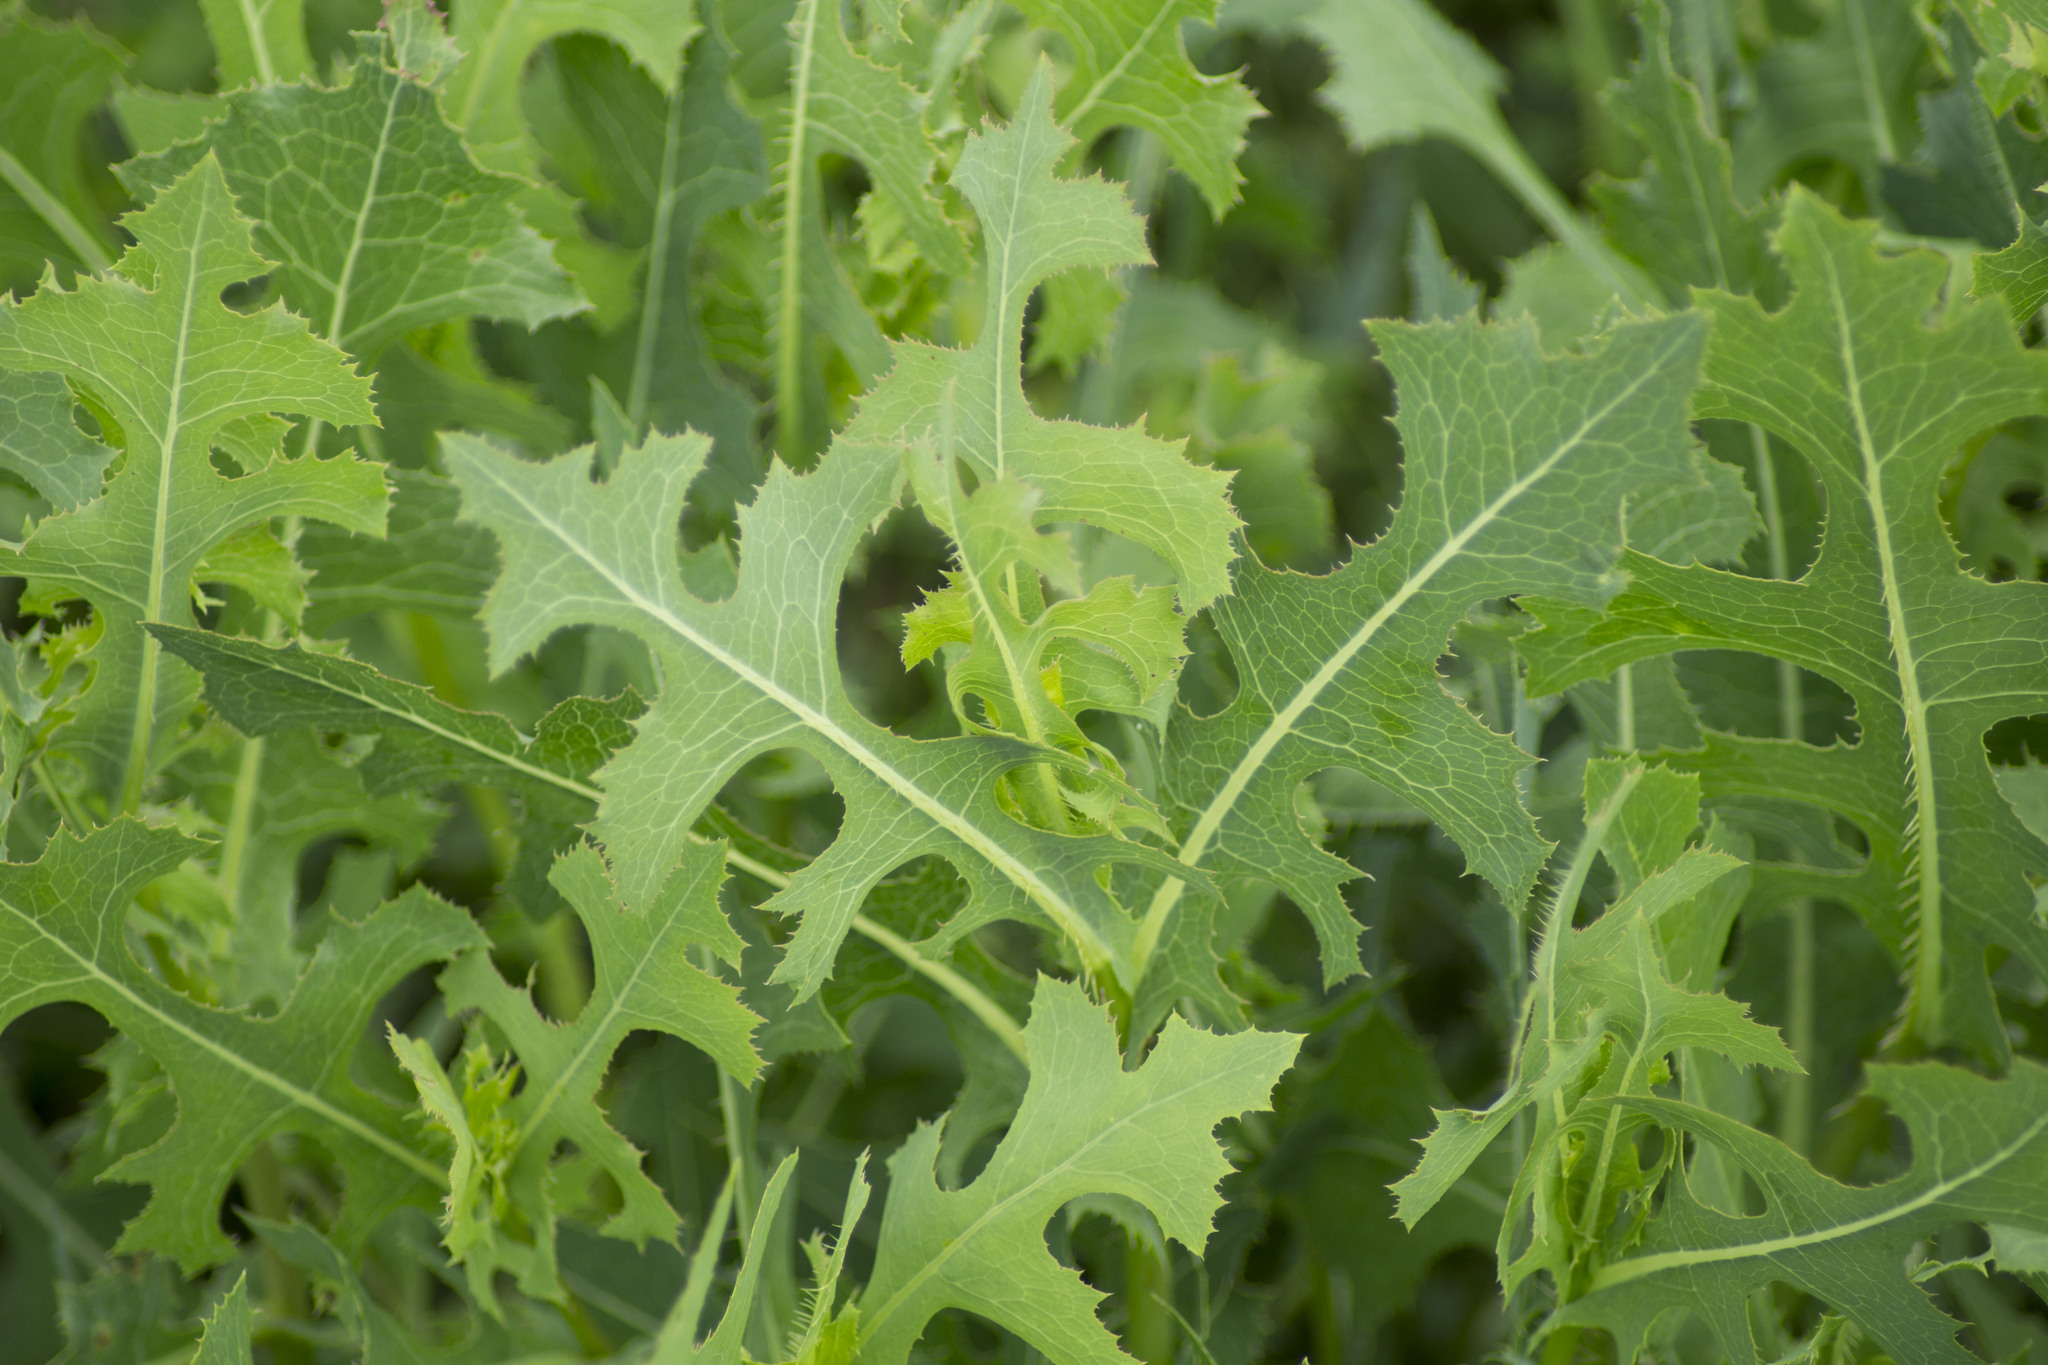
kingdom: Plantae
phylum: Tracheophyta
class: Magnoliopsida
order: Asterales
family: Asteraceae
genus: Lactuca
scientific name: Lactuca serriola
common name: Prickly lettuce
